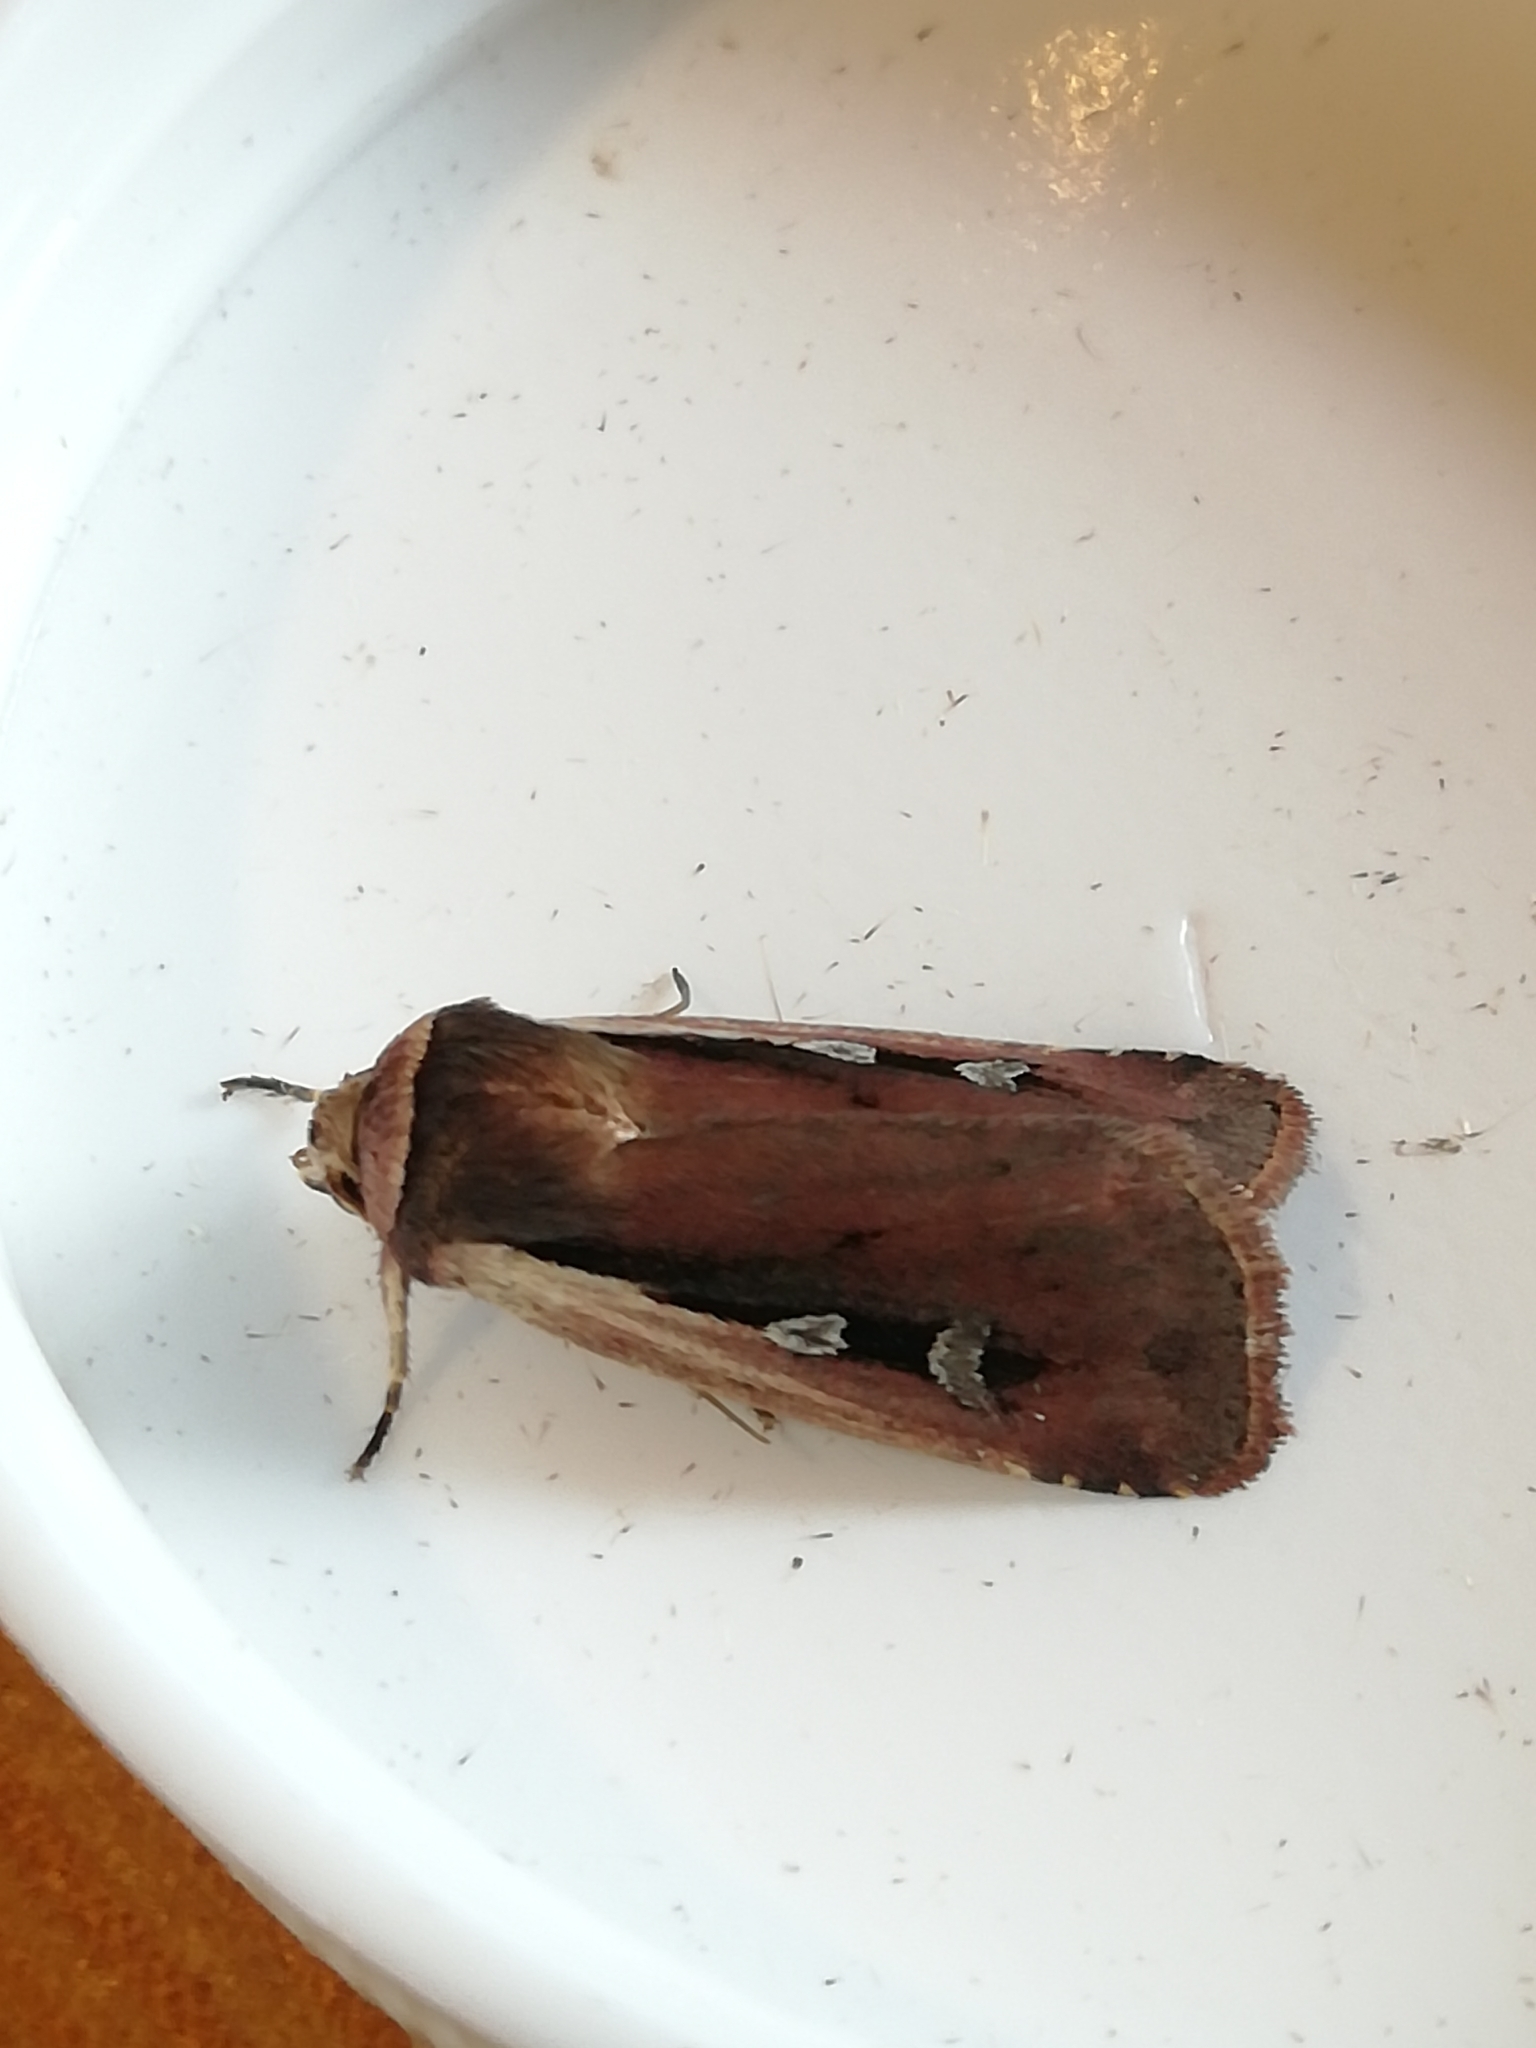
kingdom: Animalia
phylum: Arthropoda
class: Insecta
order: Lepidoptera
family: Noctuidae
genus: Ochropleura
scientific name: Ochropleura plecta
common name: Flame shoulder
